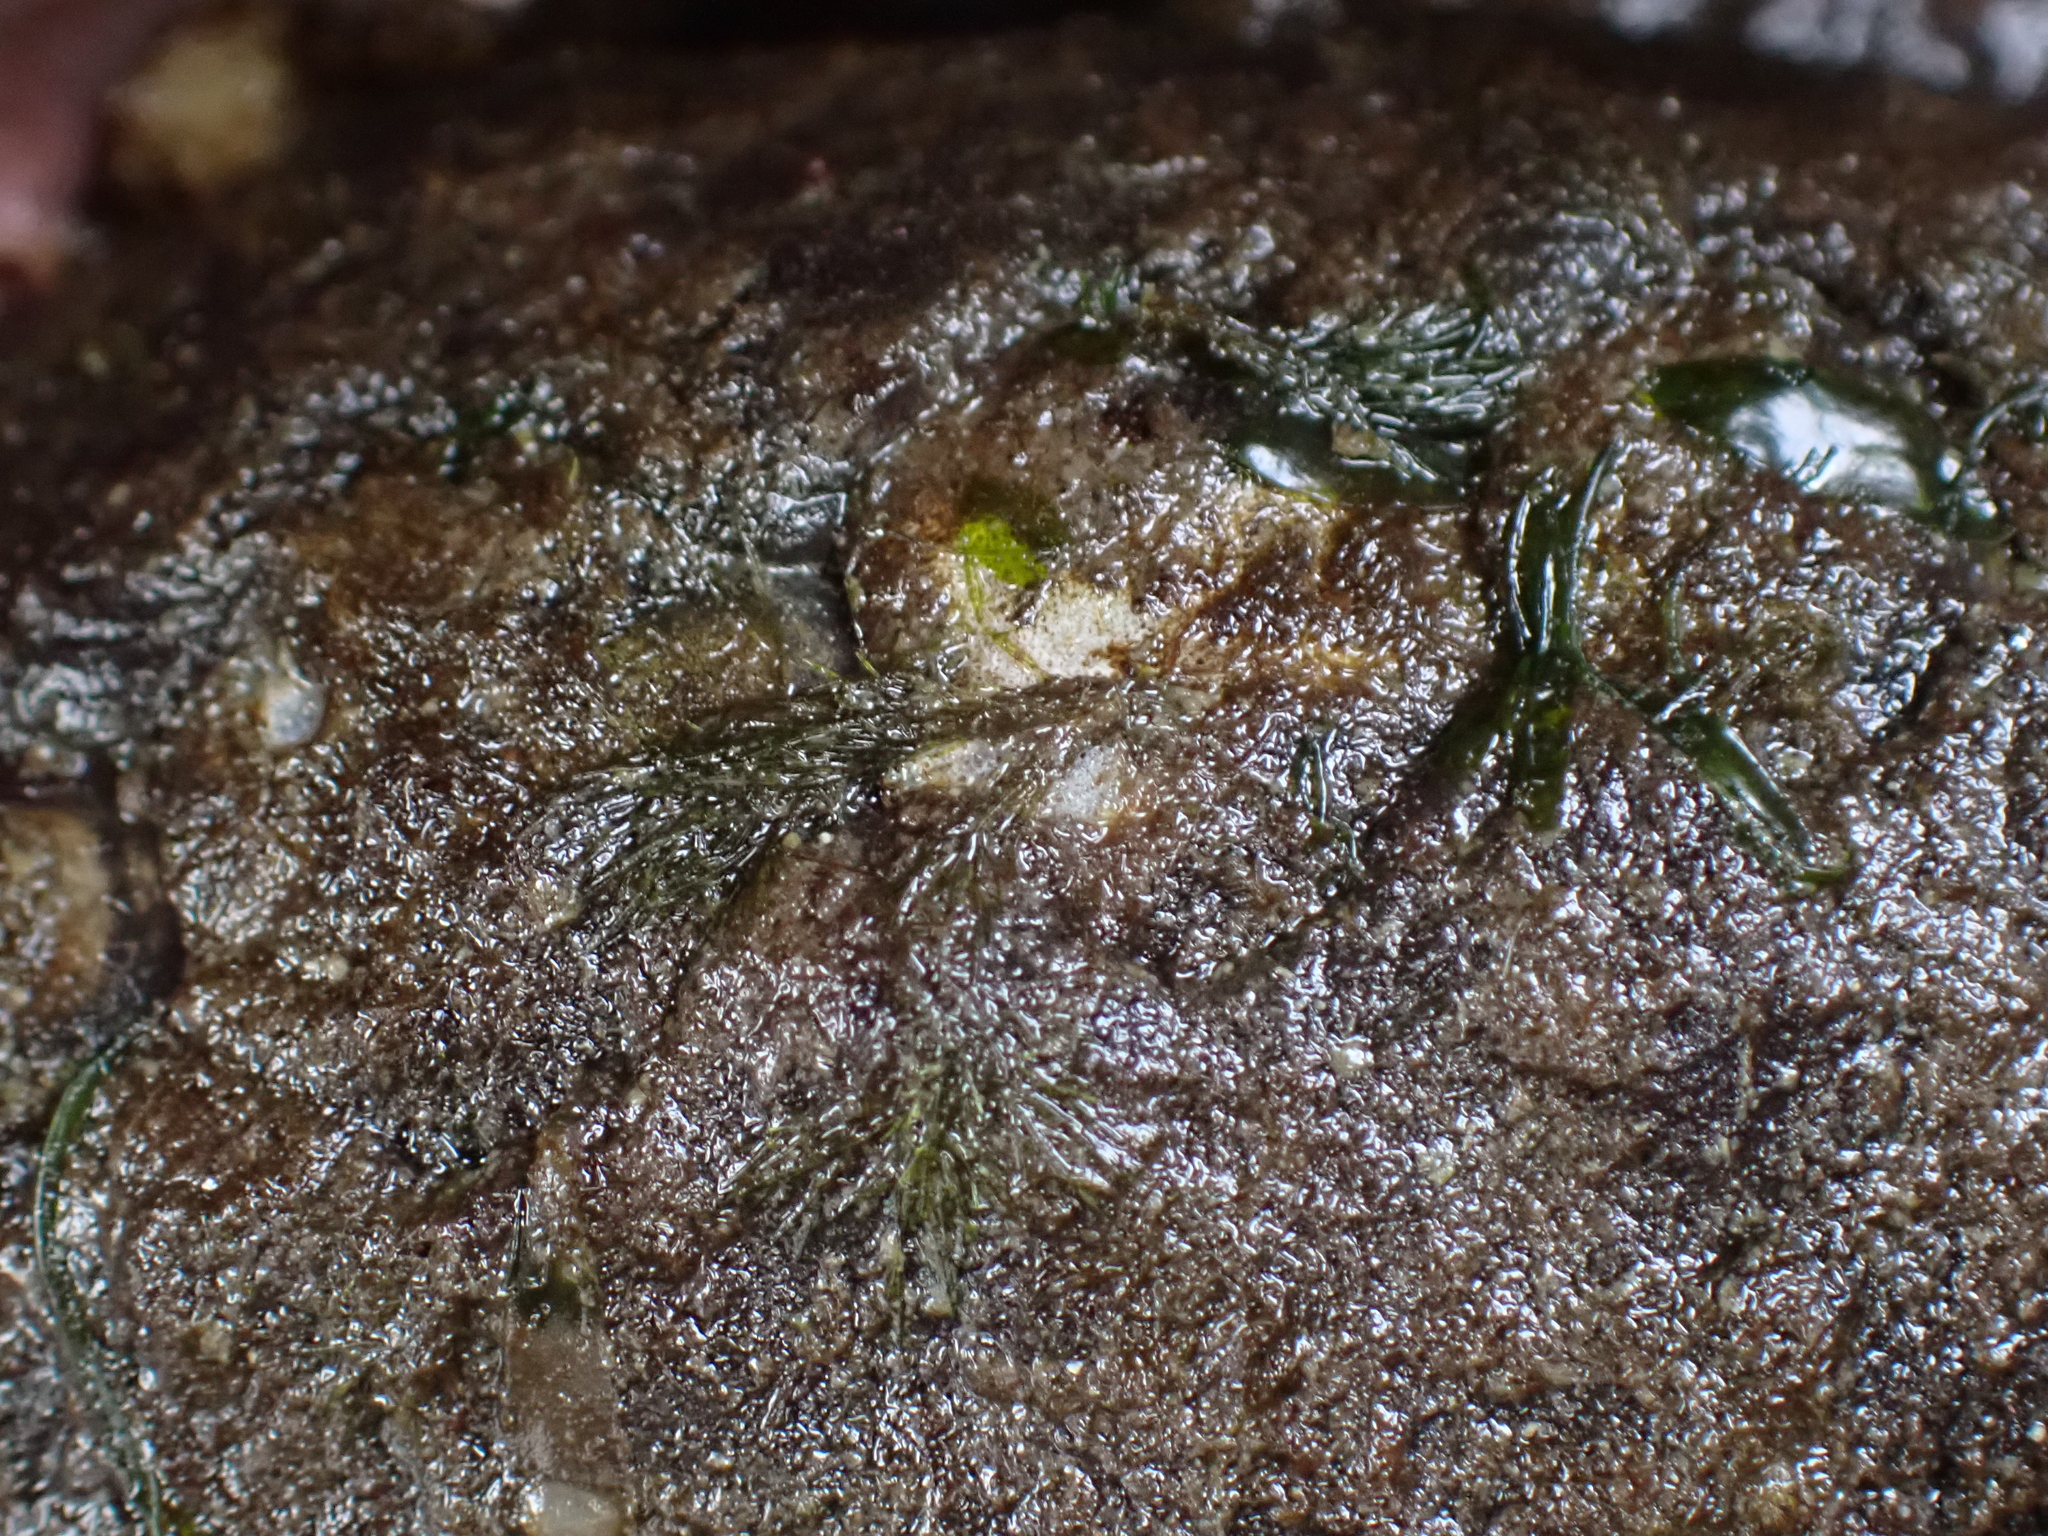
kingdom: Animalia
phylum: Mollusca
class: Polyplacophora
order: Chitonida
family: Mopaliidae
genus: Katharina
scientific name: Katharina tunicata
